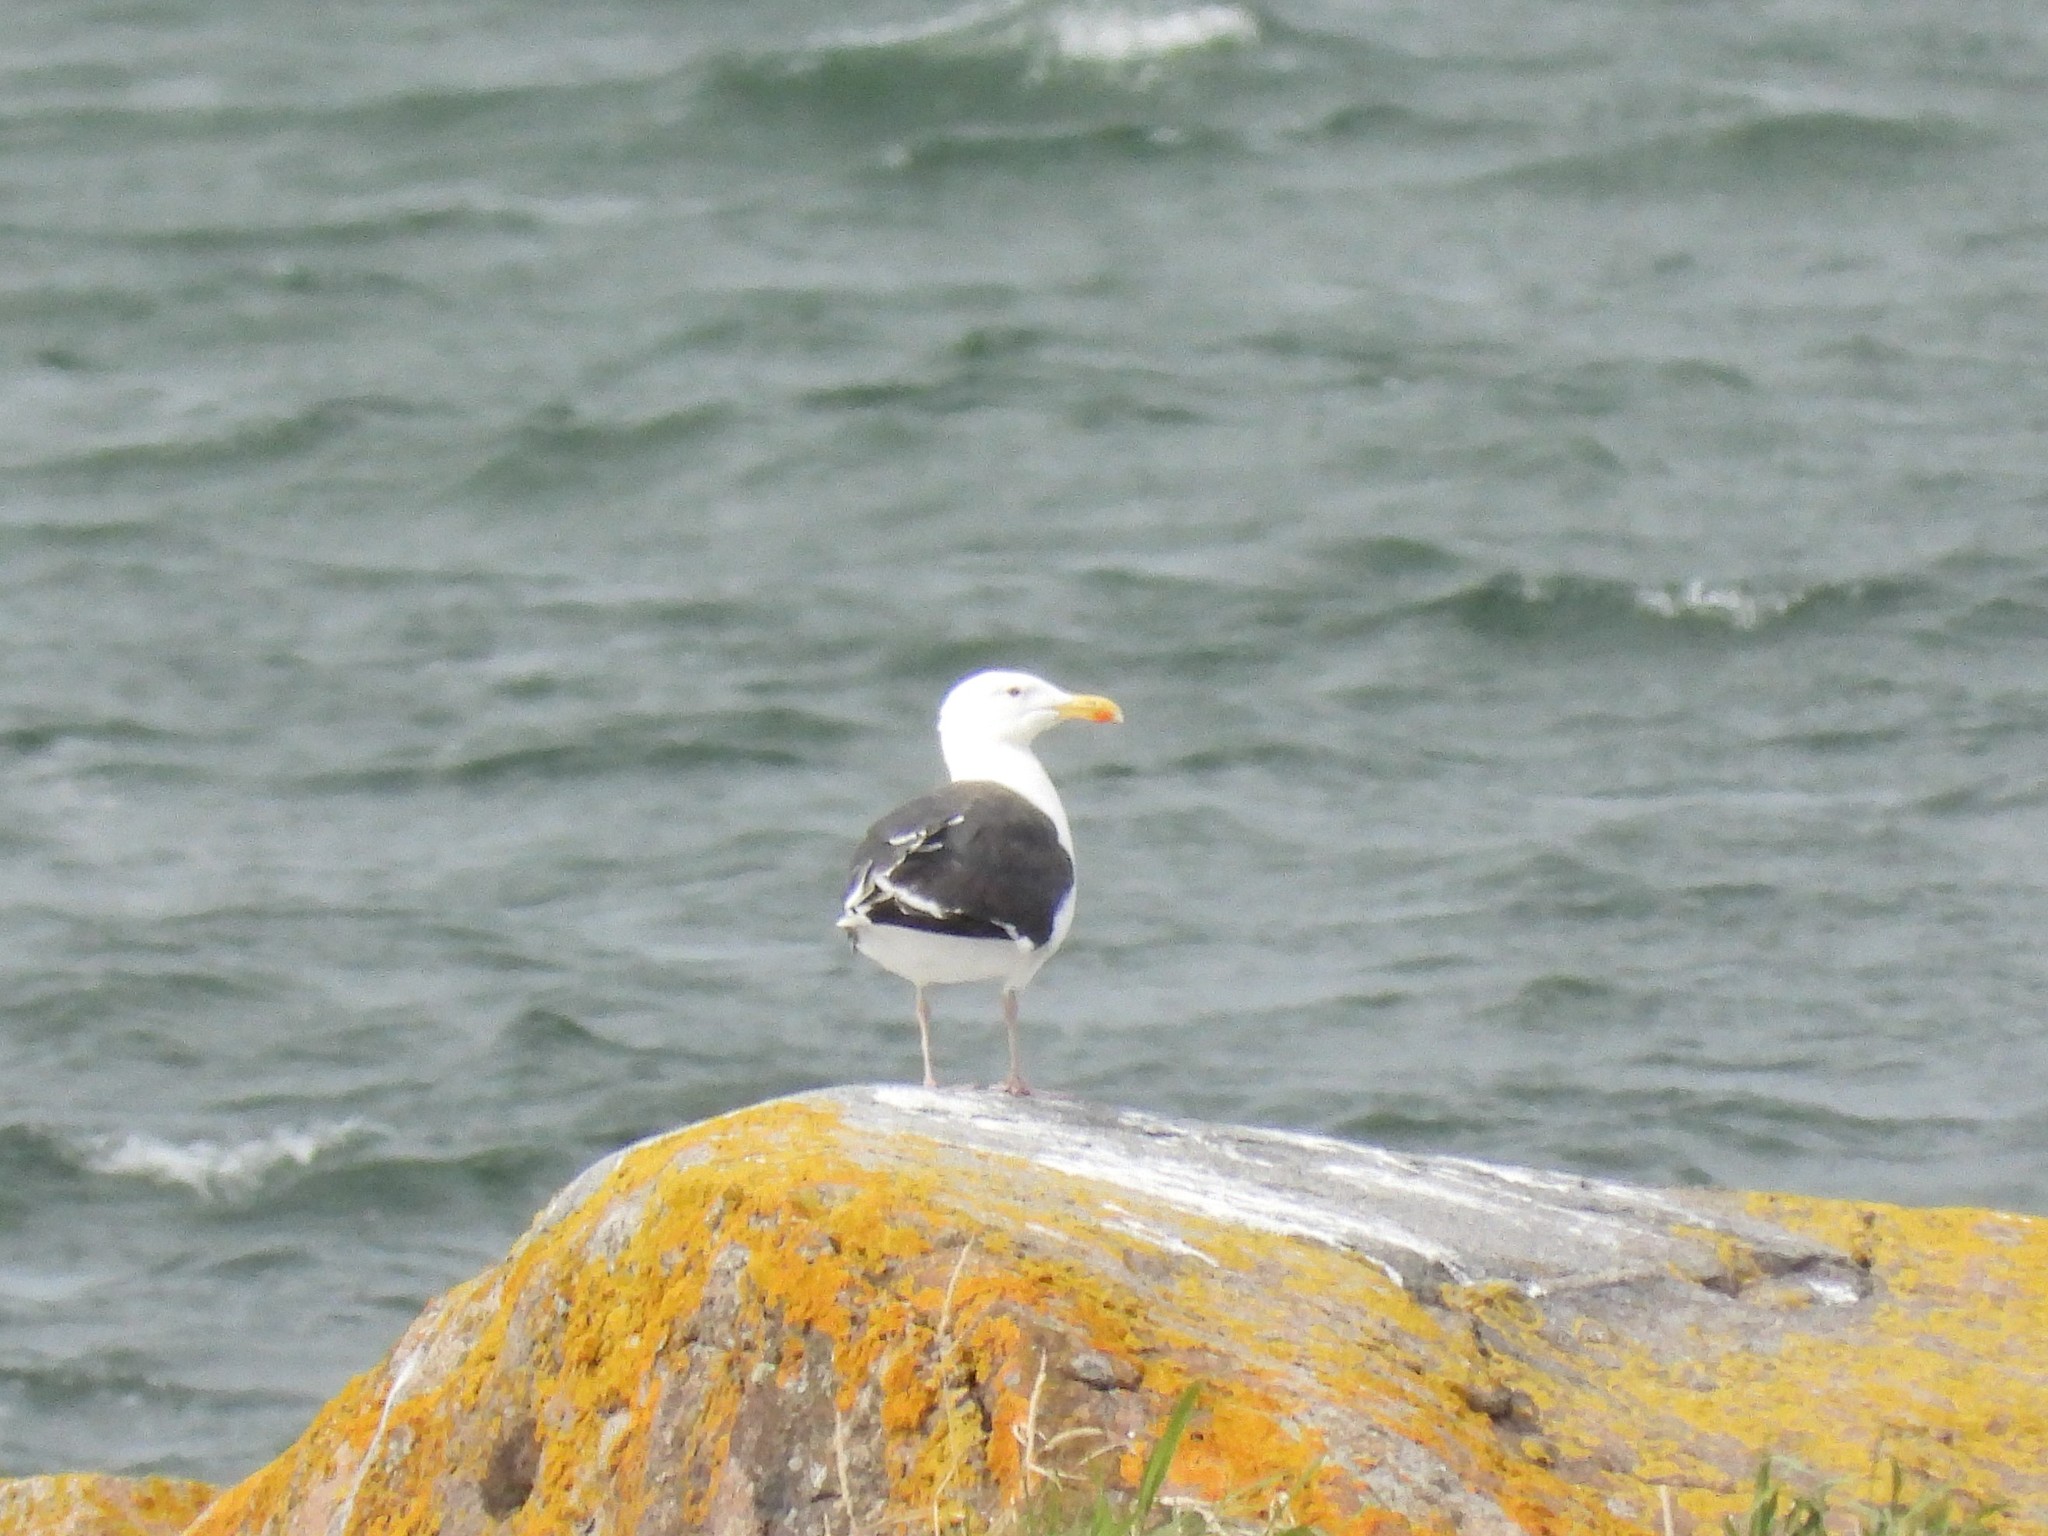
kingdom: Animalia
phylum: Chordata
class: Aves
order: Charadriiformes
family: Laridae
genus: Larus
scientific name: Larus marinus
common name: Great black-backed gull
